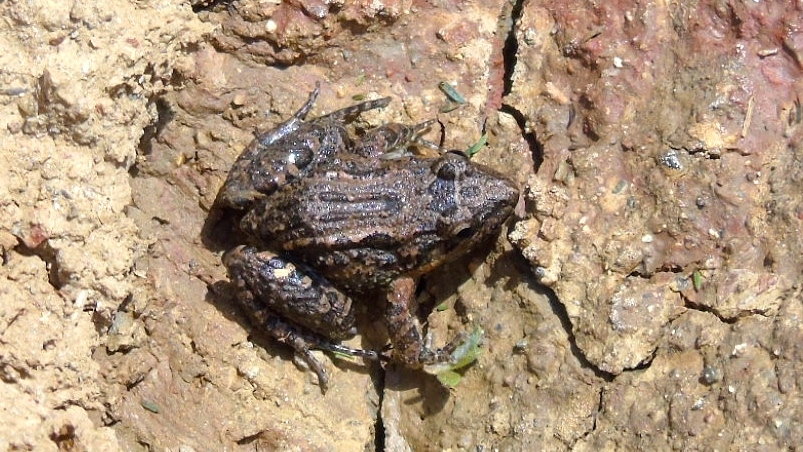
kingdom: Animalia
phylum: Chordata
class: Amphibia
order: Anura
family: Leptodactylidae
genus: Leptodactylus
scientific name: Leptodactylus melanonotus
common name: Fringe-toed foamfrog
